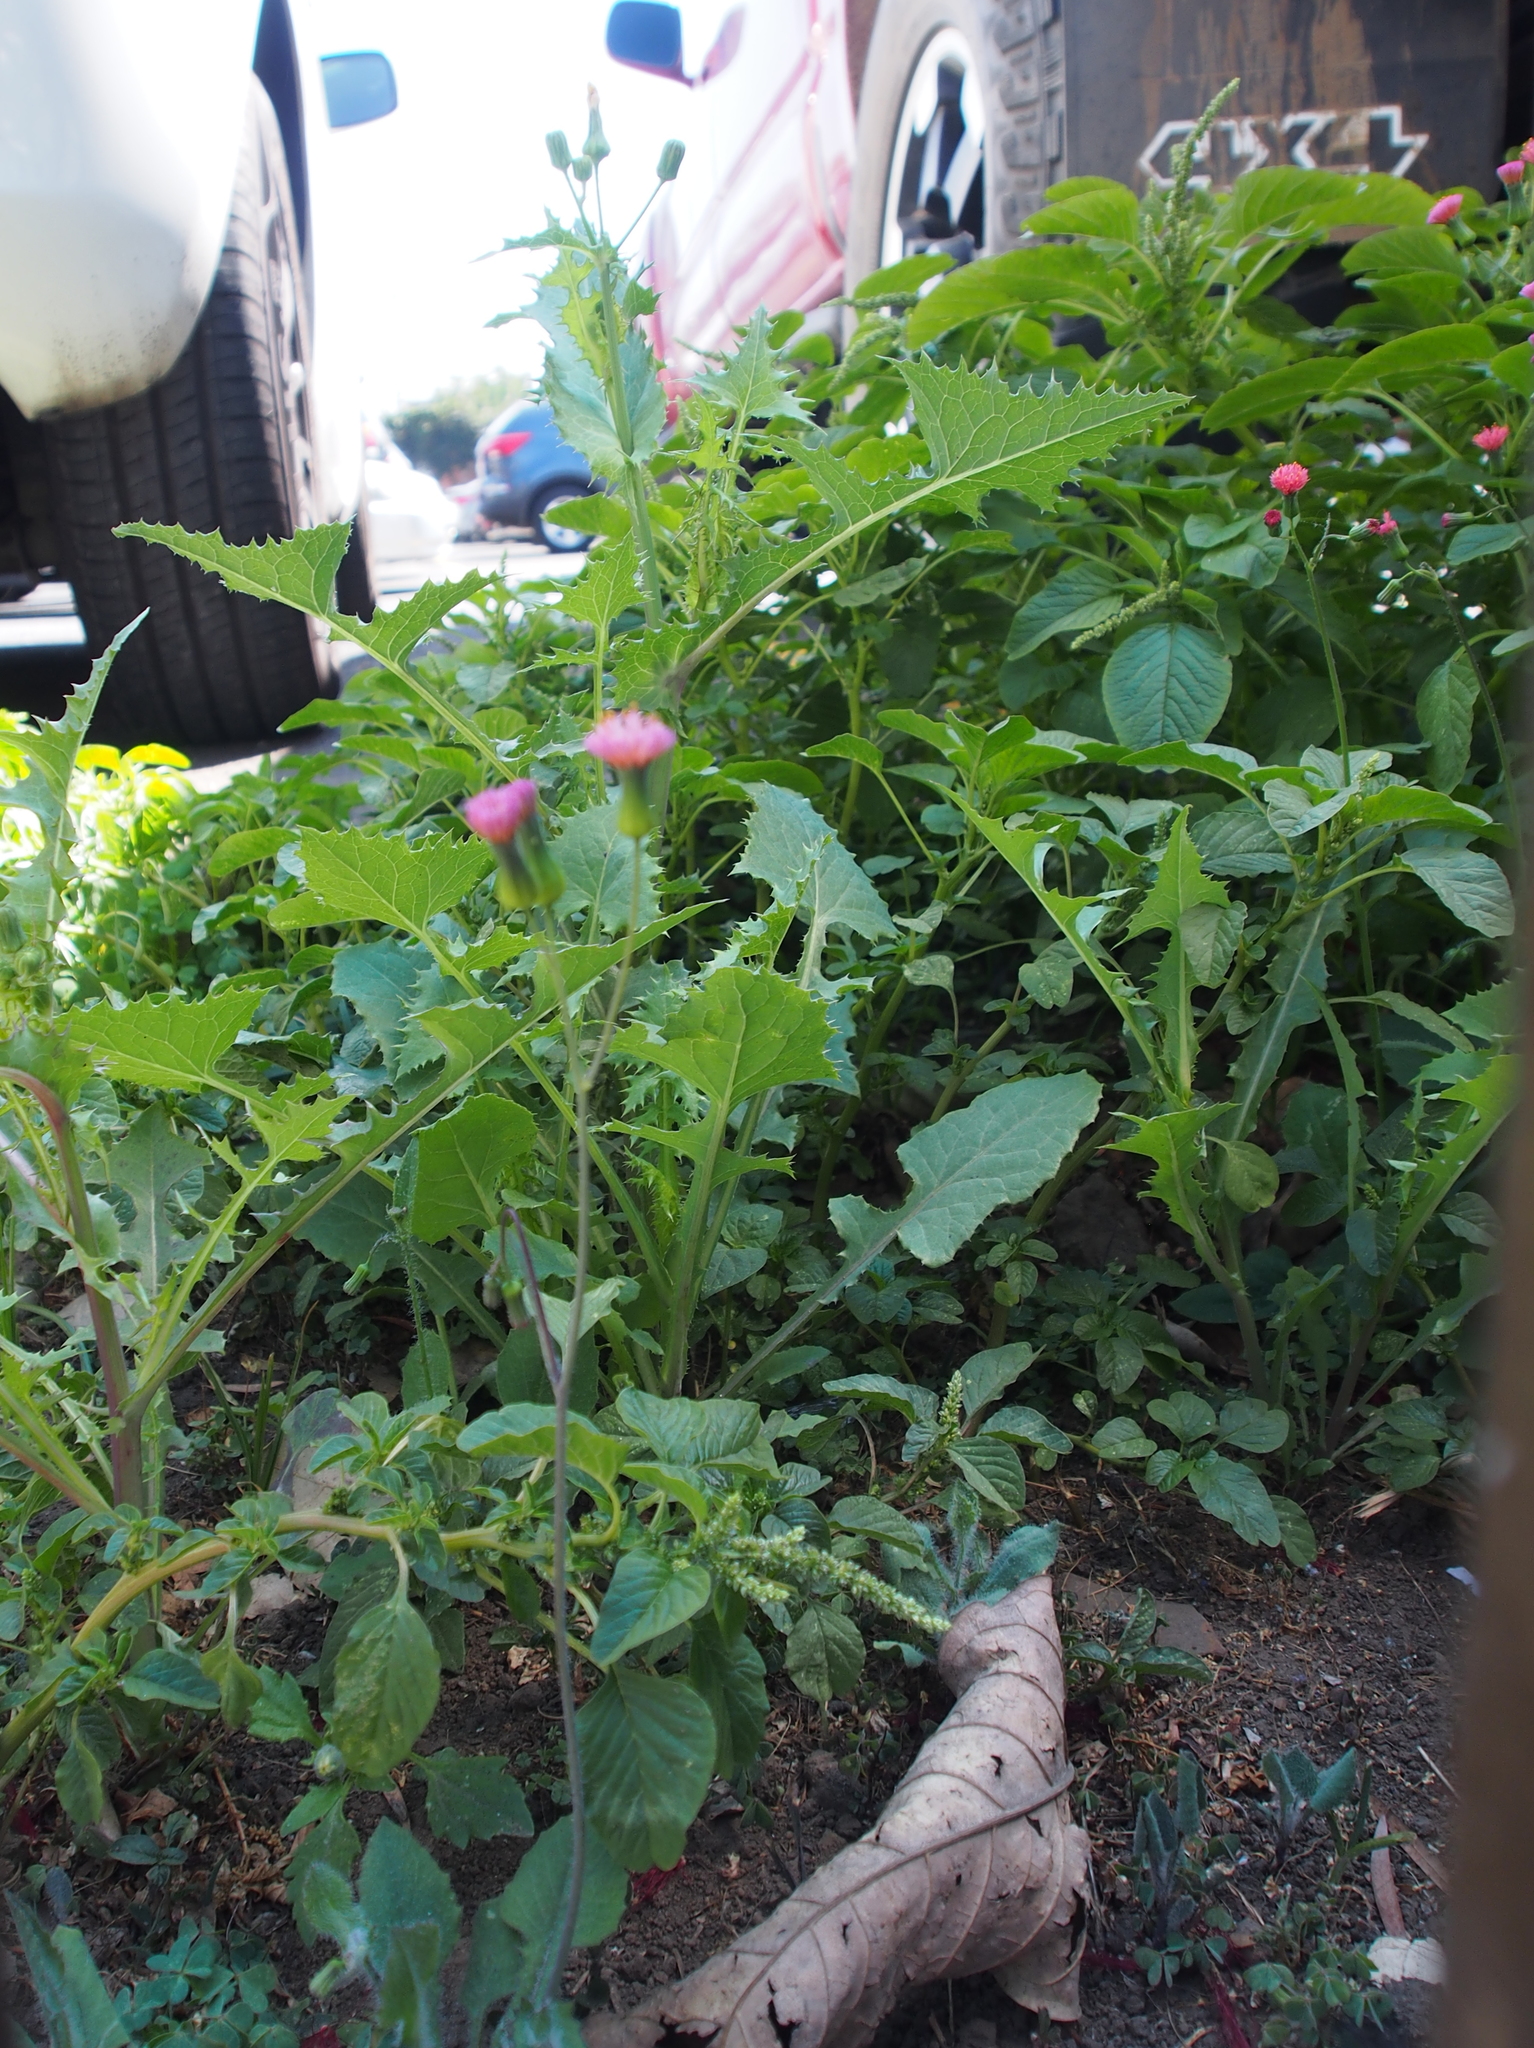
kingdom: Plantae
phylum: Tracheophyta
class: Magnoliopsida
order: Asterales
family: Asteraceae
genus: Emilia
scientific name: Emilia fosbergii
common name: Florida tasselflower
